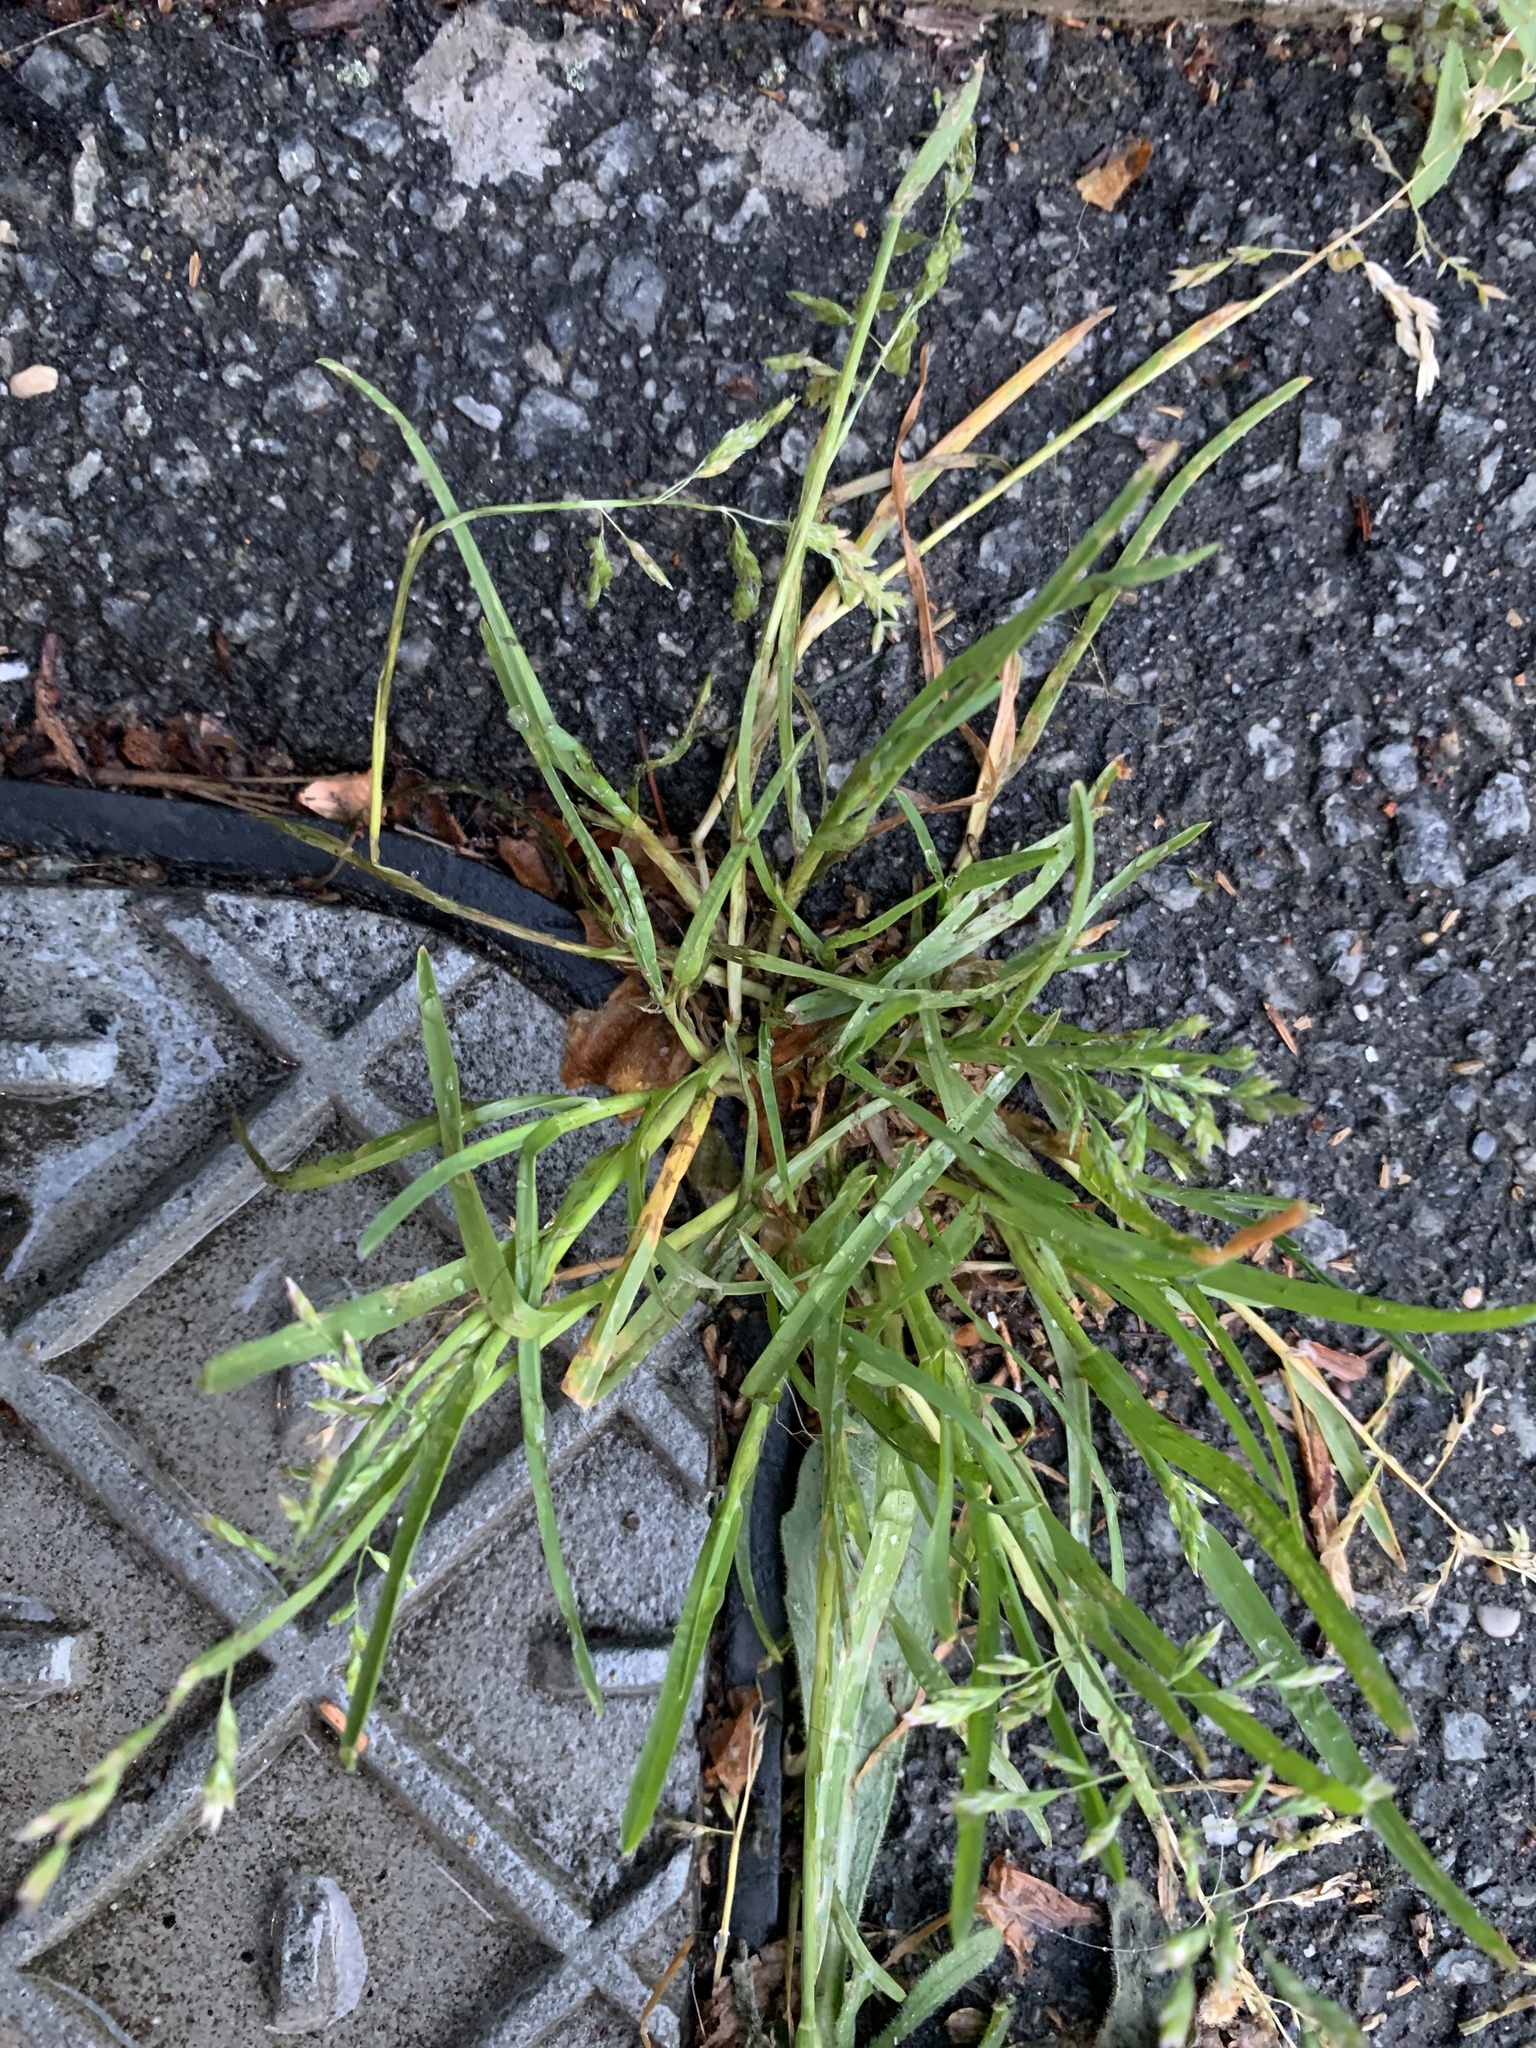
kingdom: Plantae
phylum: Tracheophyta
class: Liliopsida
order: Poales
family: Poaceae
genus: Poa
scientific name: Poa annua
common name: Annual bluegrass
